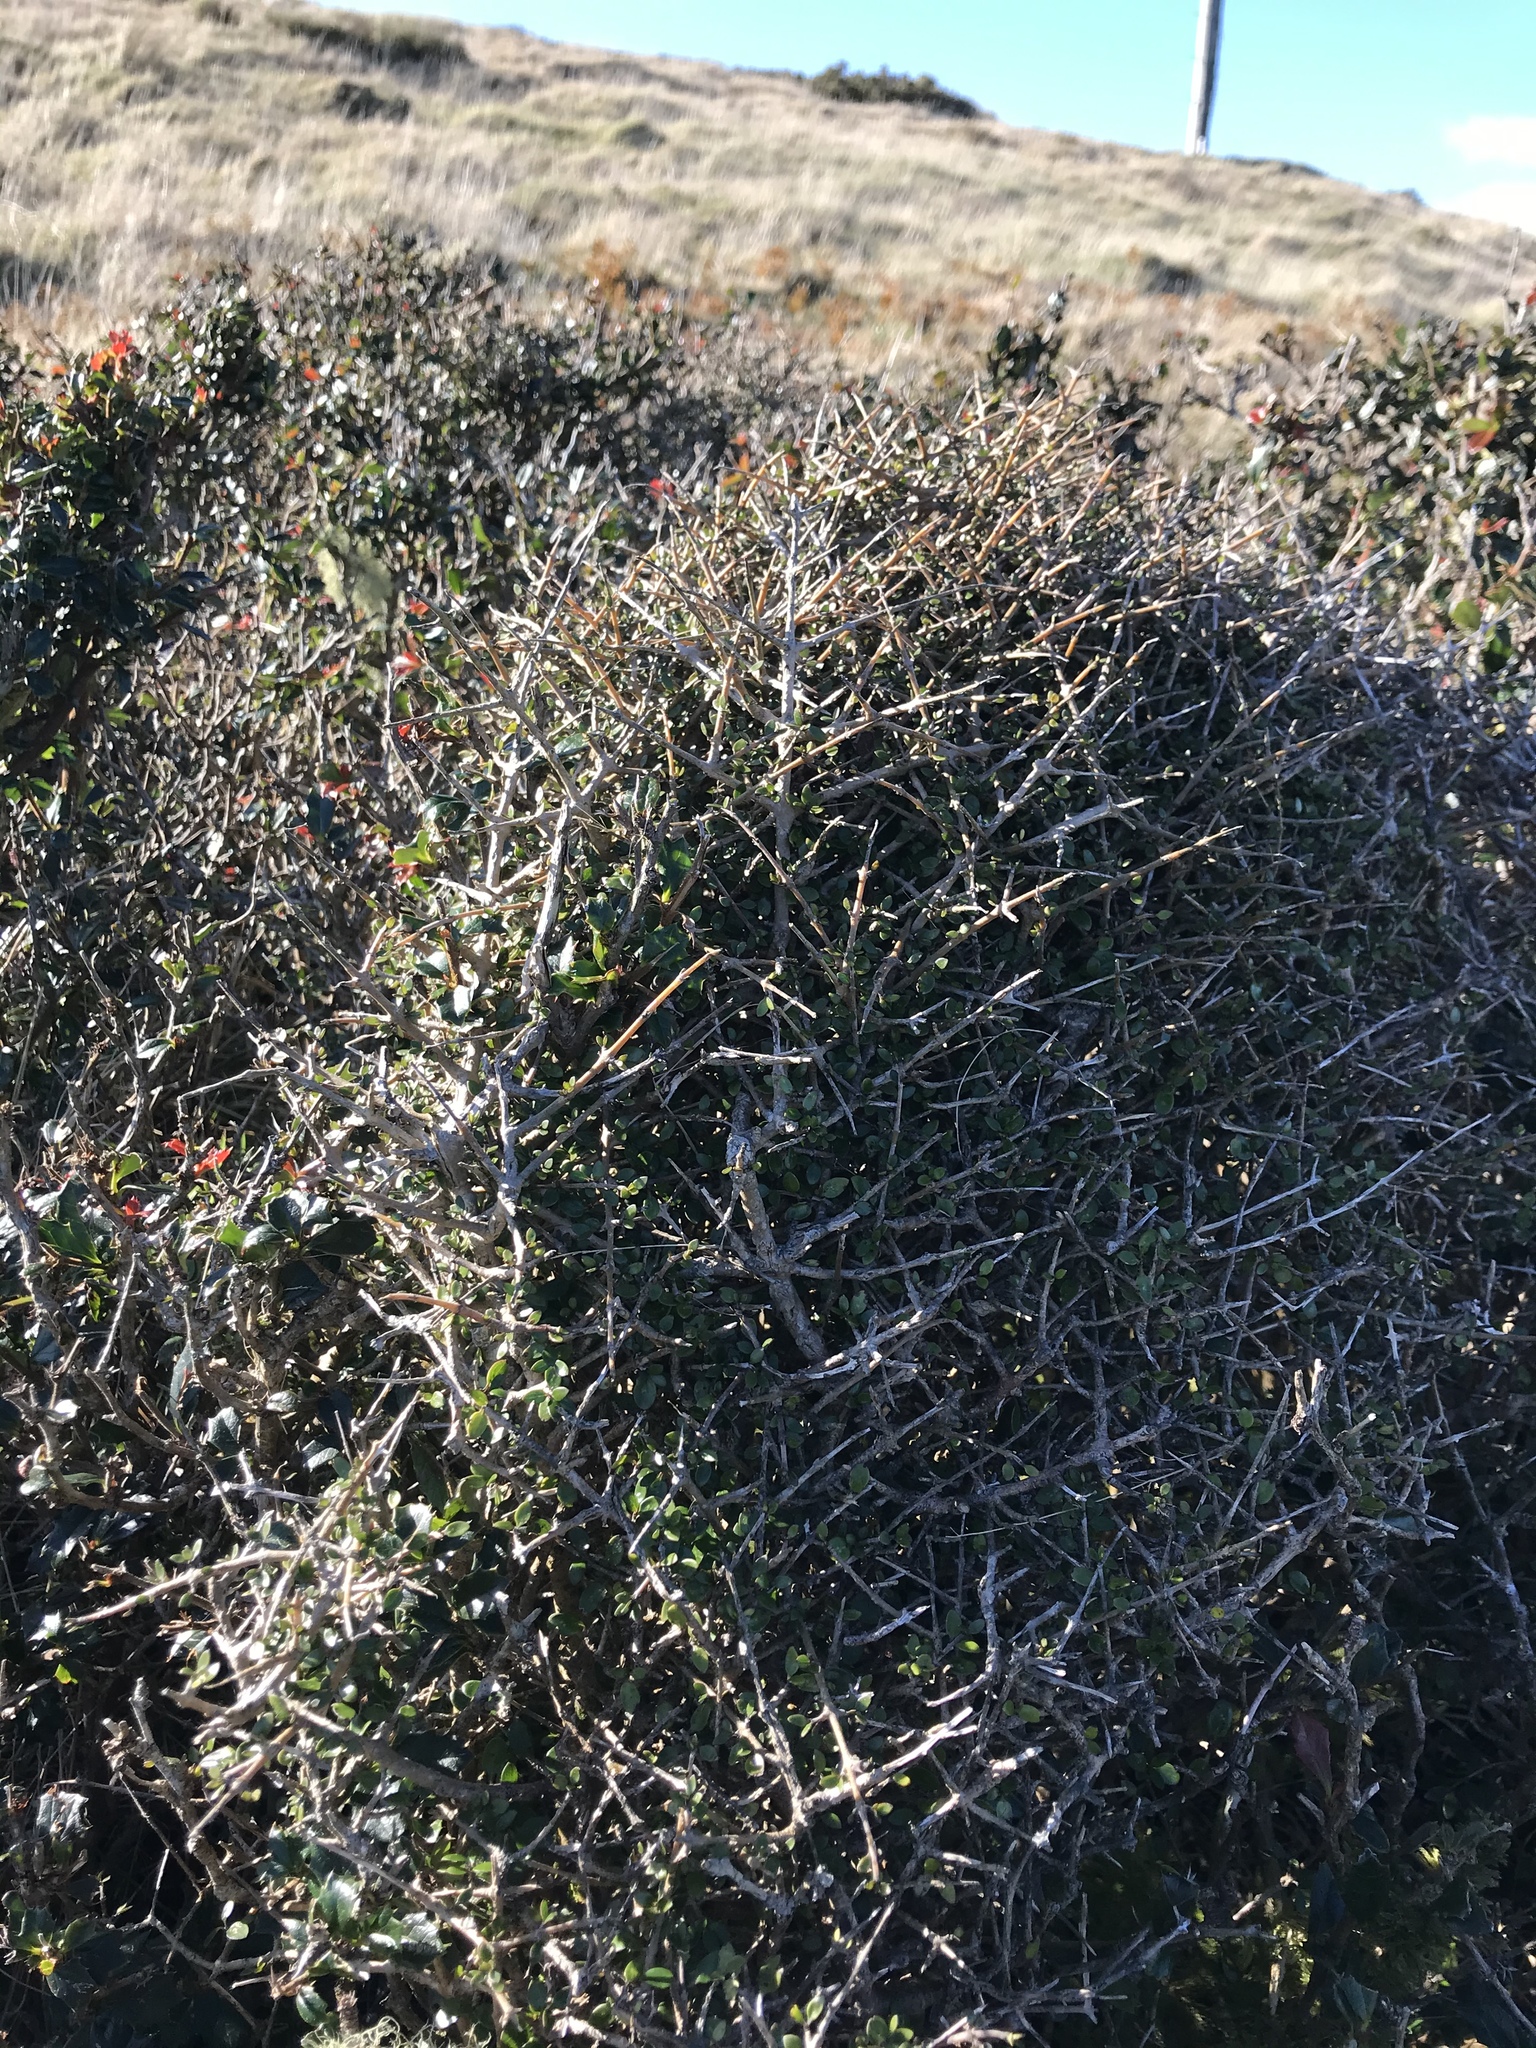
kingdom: Plantae
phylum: Tracheophyta
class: Magnoliopsida
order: Gentianales
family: Rubiaceae
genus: Coprosma
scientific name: Coprosma propinqua
